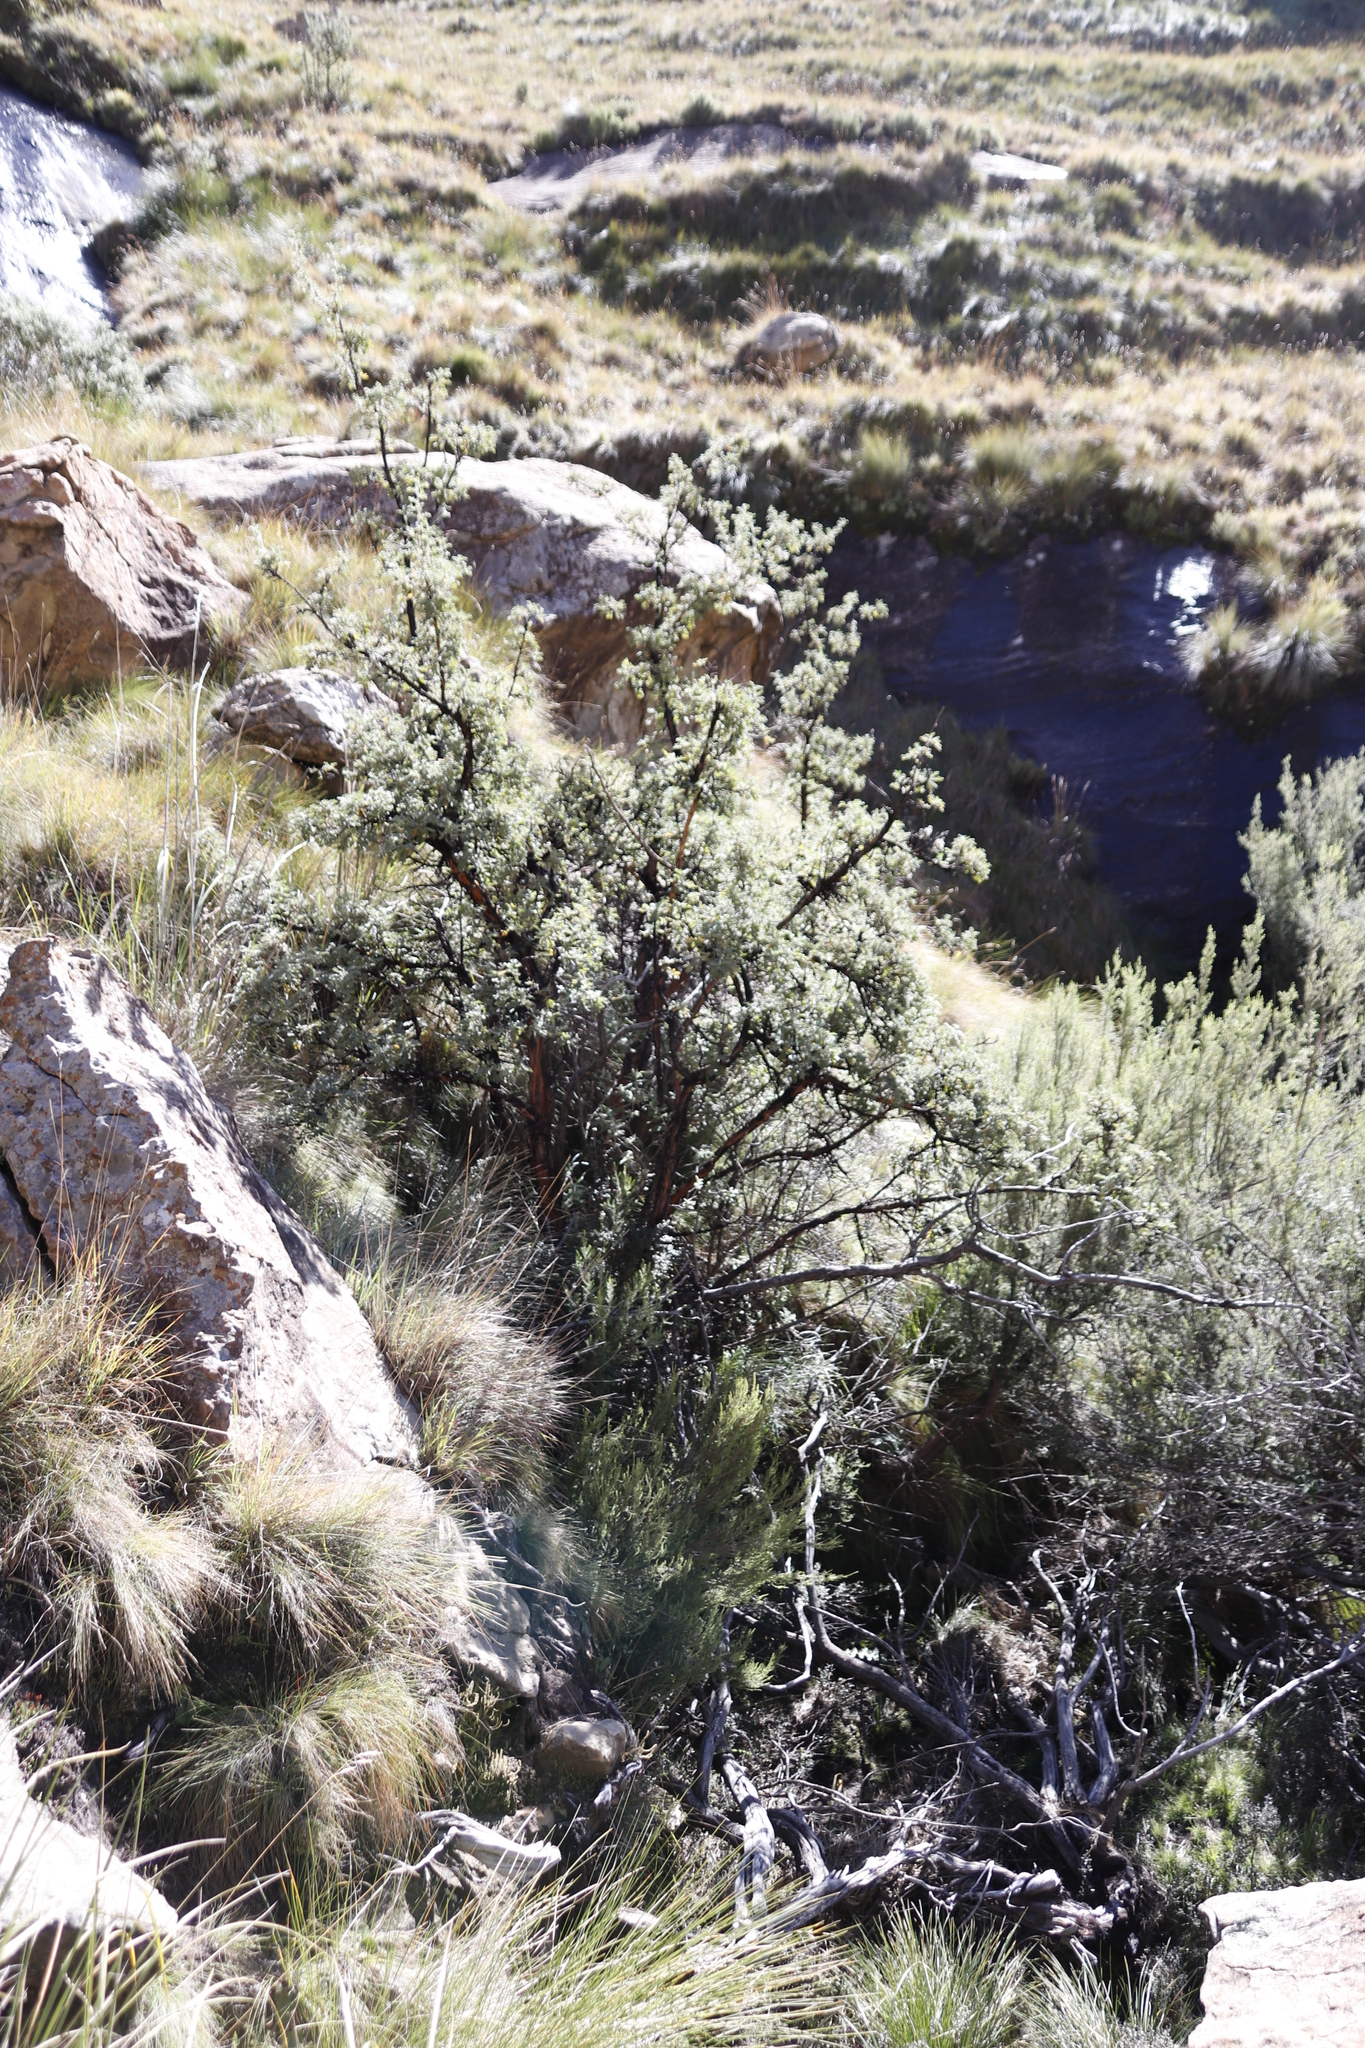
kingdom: Plantae
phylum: Tracheophyta
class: Magnoliopsida
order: Rosales
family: Rosaceae
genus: Leucosidea
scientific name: Leucosidea sericea
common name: Oldwood
